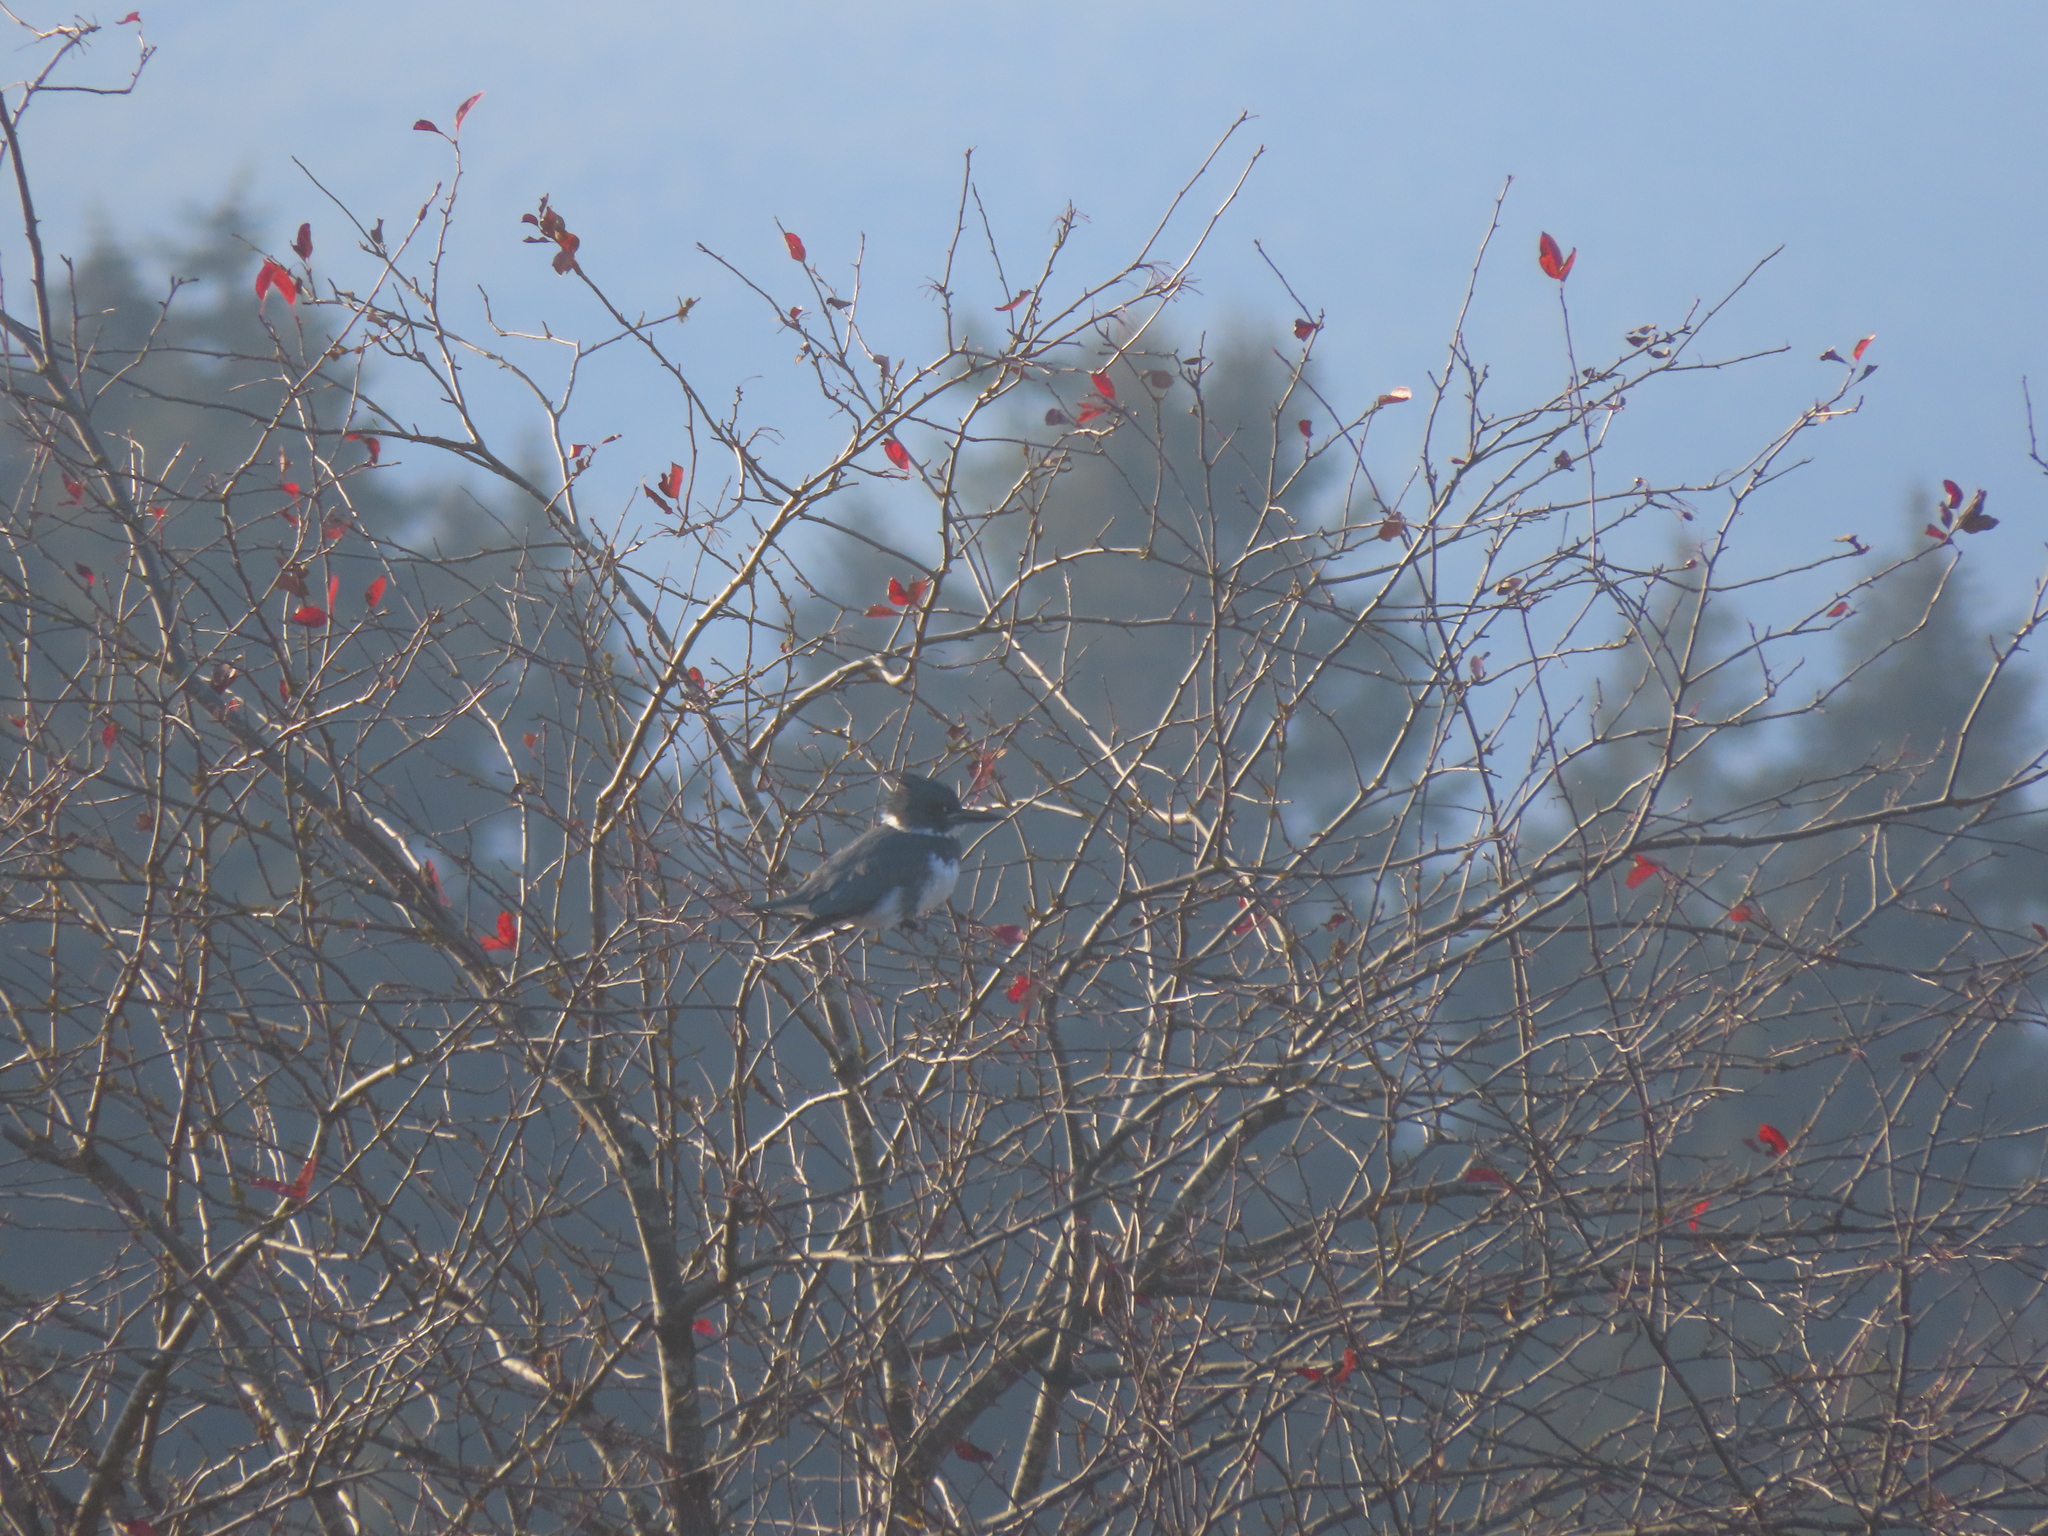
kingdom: Animalia
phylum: Chordata
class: Aves
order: Coraciiformes
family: Alcedinidae
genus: Megaceryle
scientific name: Megaceryle alcyon
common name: Belted kingfisher
